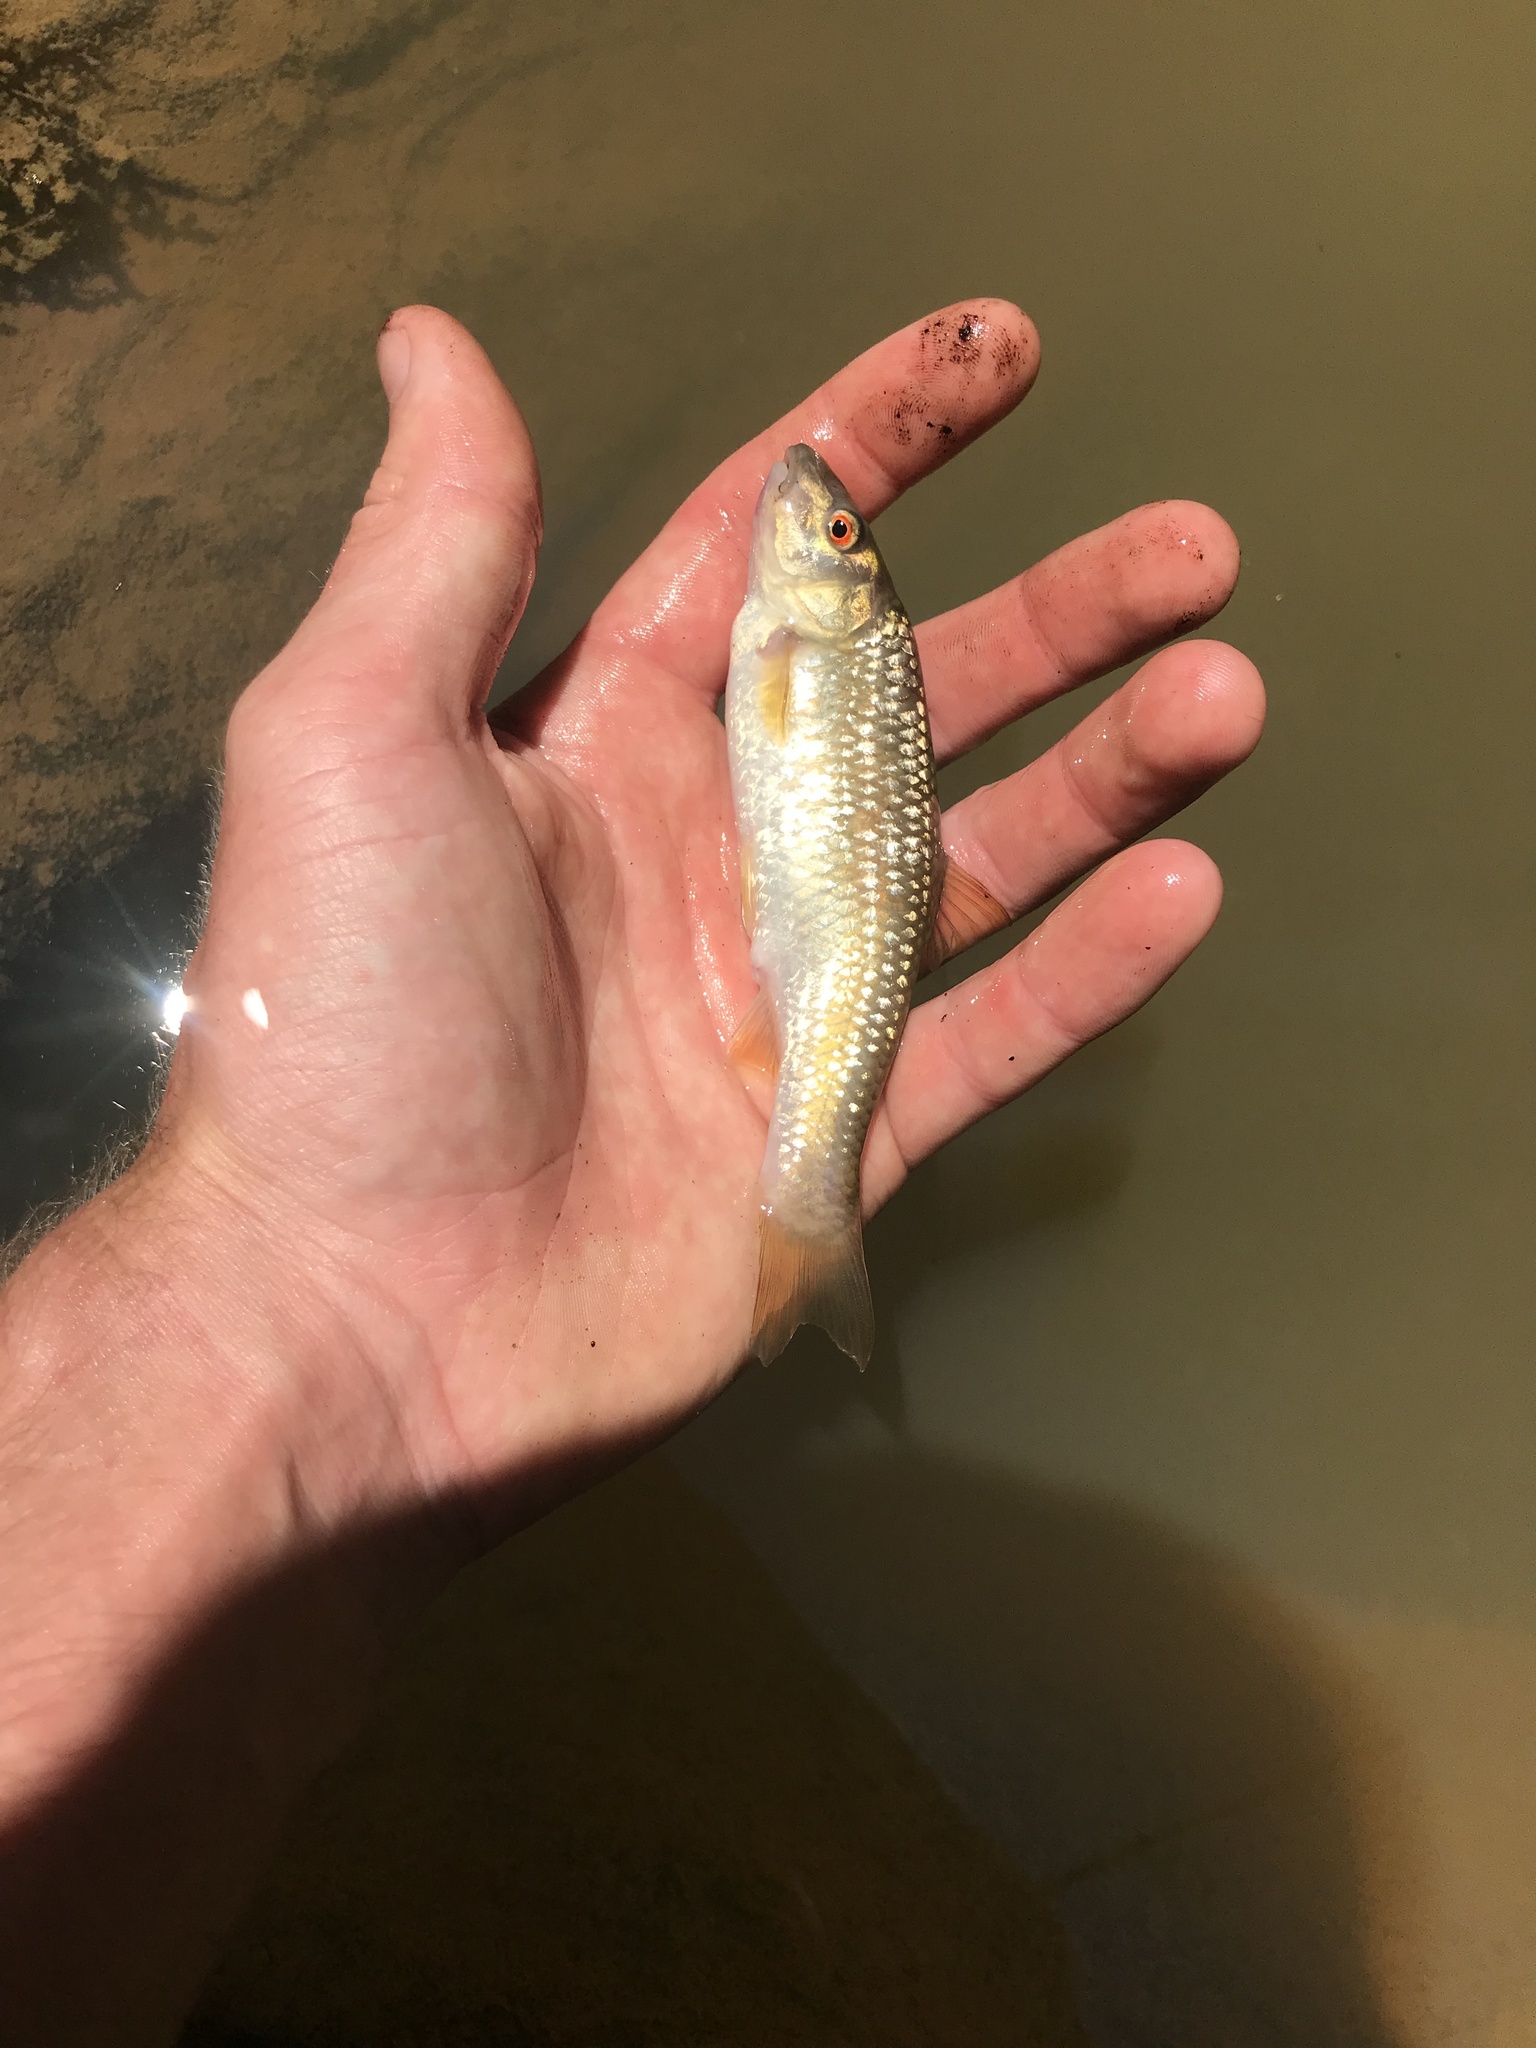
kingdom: Animalia
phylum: Chordata
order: Cypriniformes
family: Cyprinidae
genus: Nocomis
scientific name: Nocomis leptocephalus
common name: Bluehead chub
